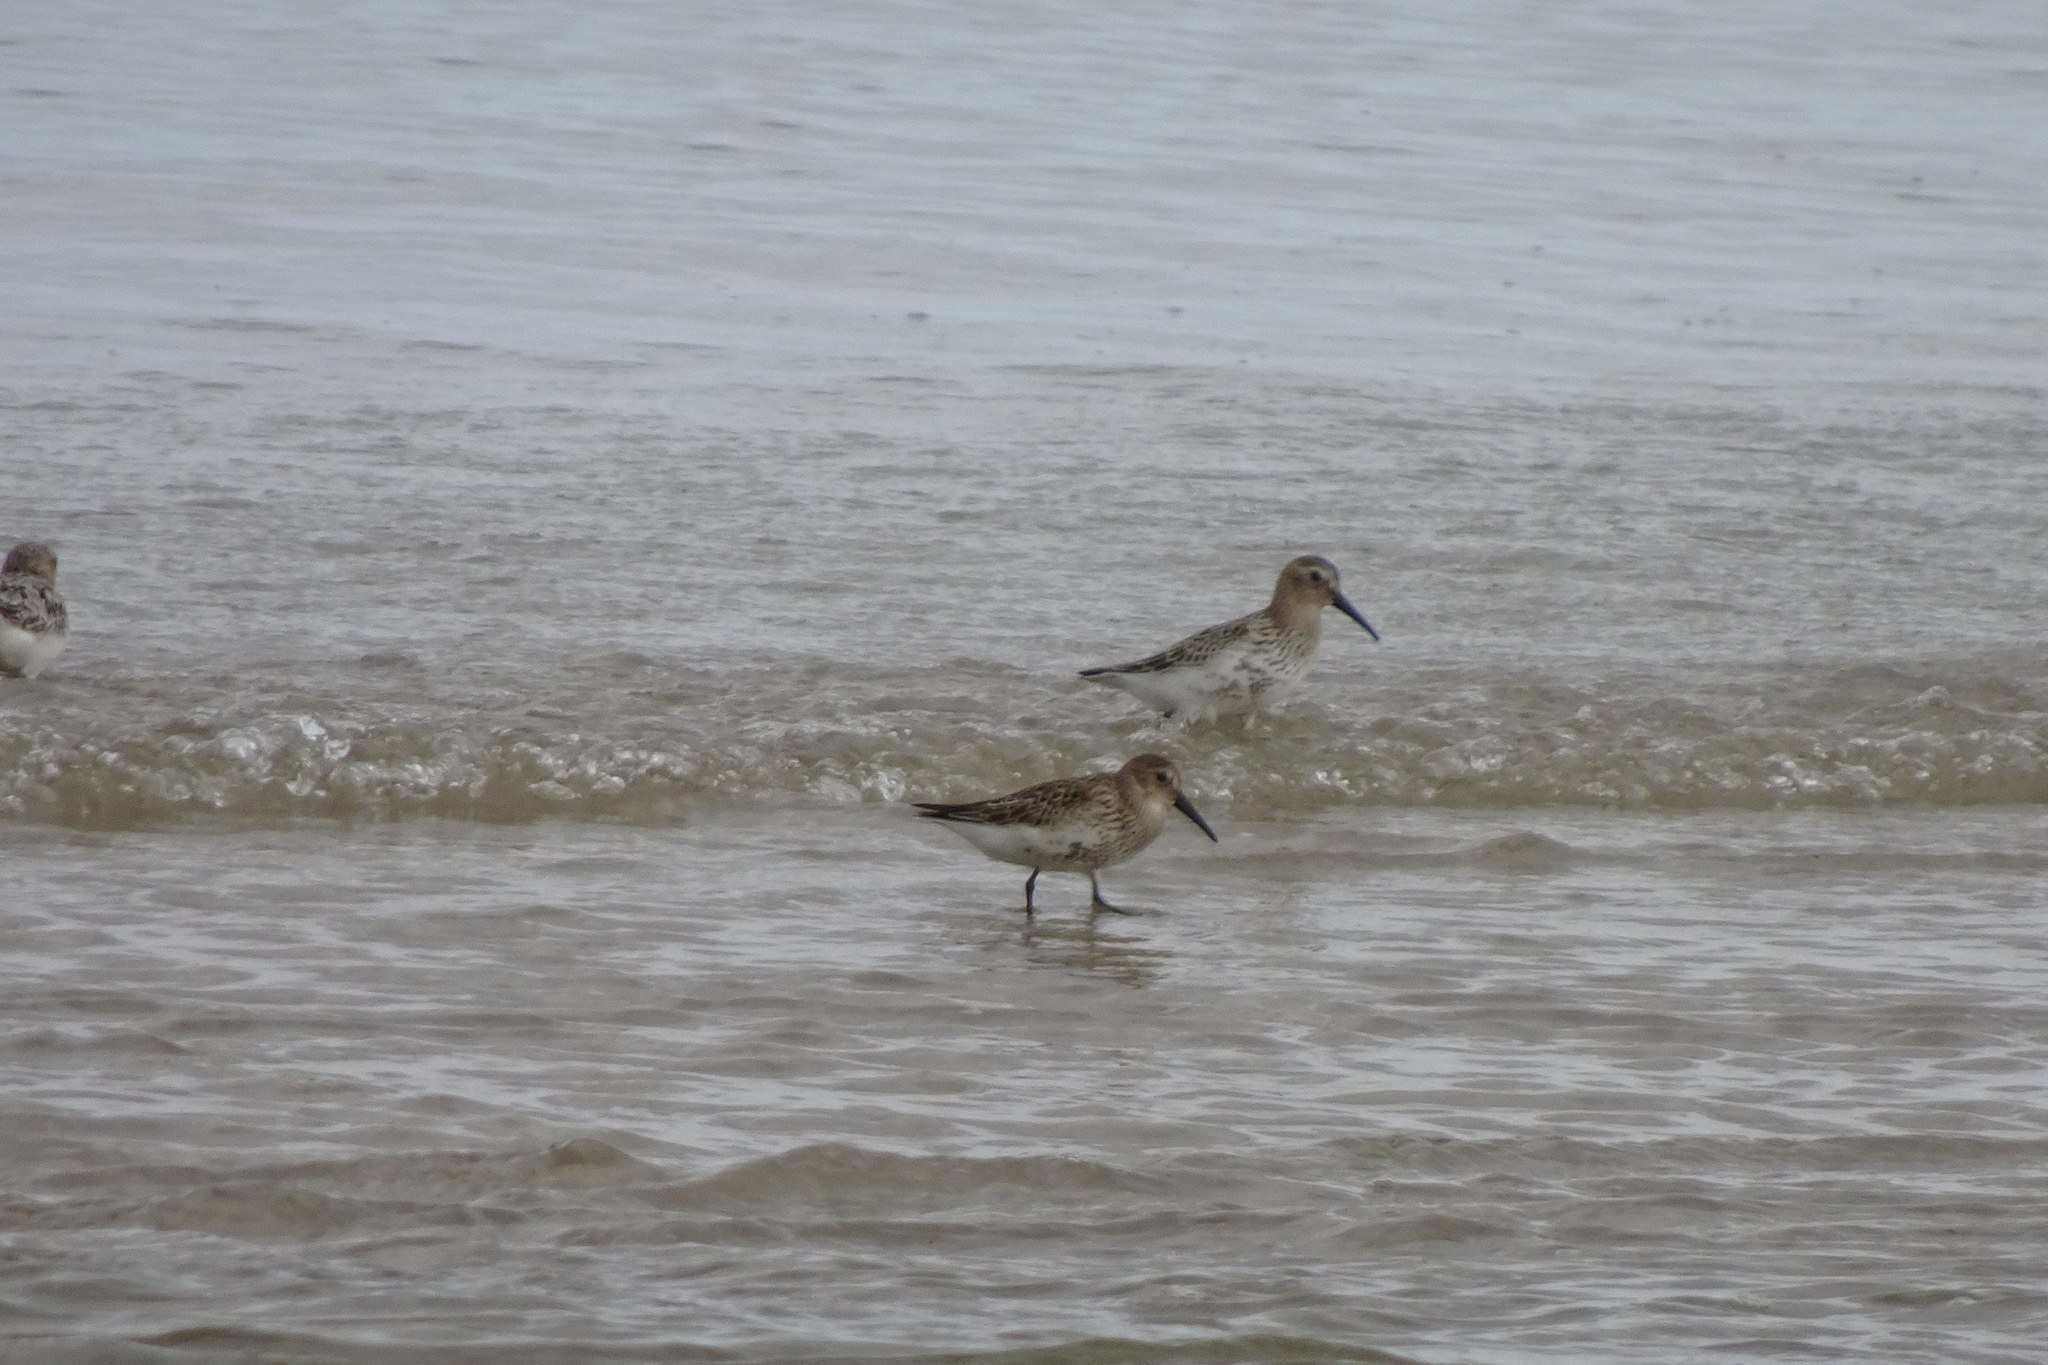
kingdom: Animalia
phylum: Chordata
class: Aves
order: Charadriiformes
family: Scolopacidae
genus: Calidris
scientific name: Calidris alpina
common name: Dunlin
